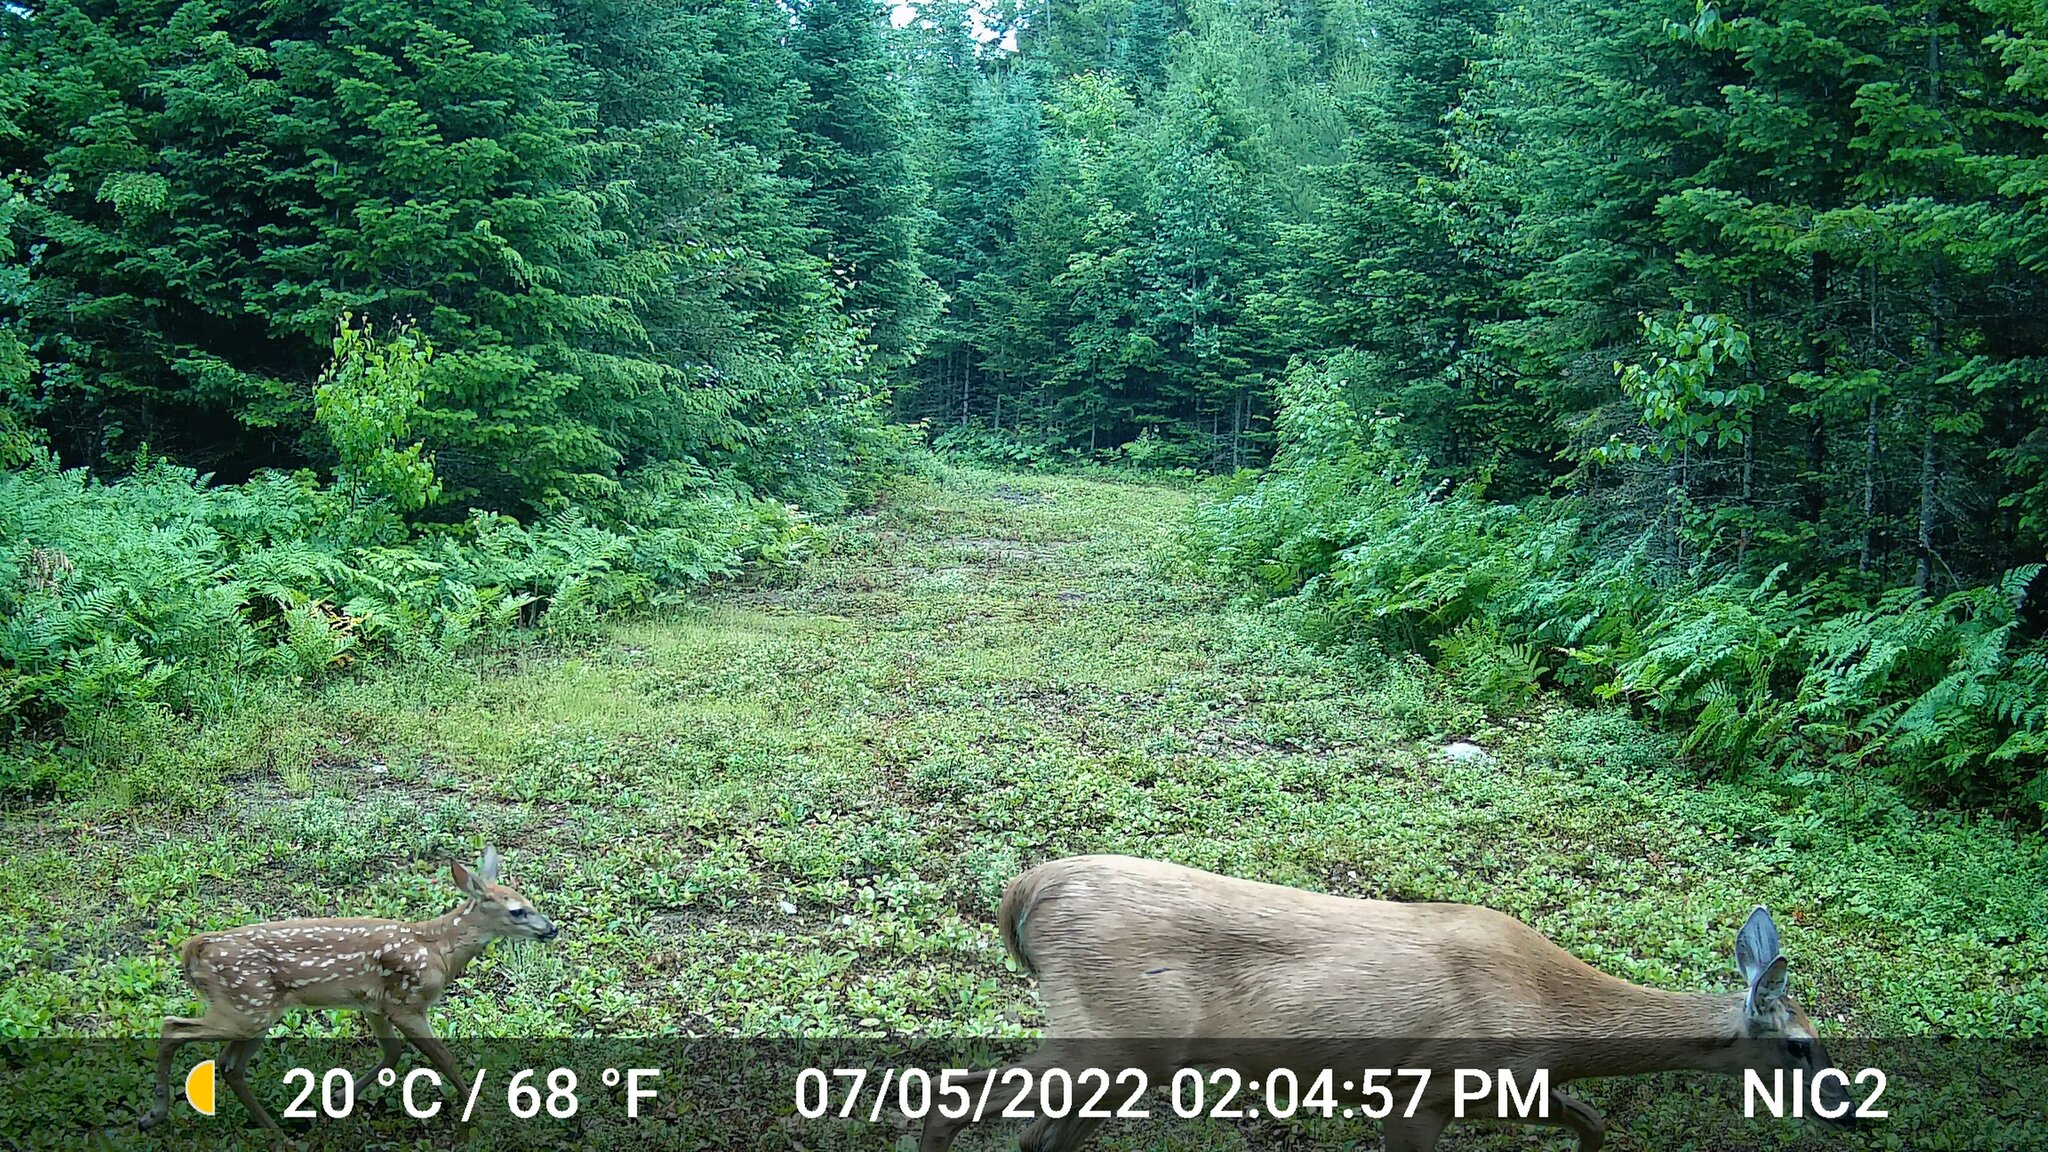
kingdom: Animalia
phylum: Chordata
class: Mammalia
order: Artiodactyla
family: Cervidae
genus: Odocoileus
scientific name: Odocoileus virginianus
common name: White-tailed deer
